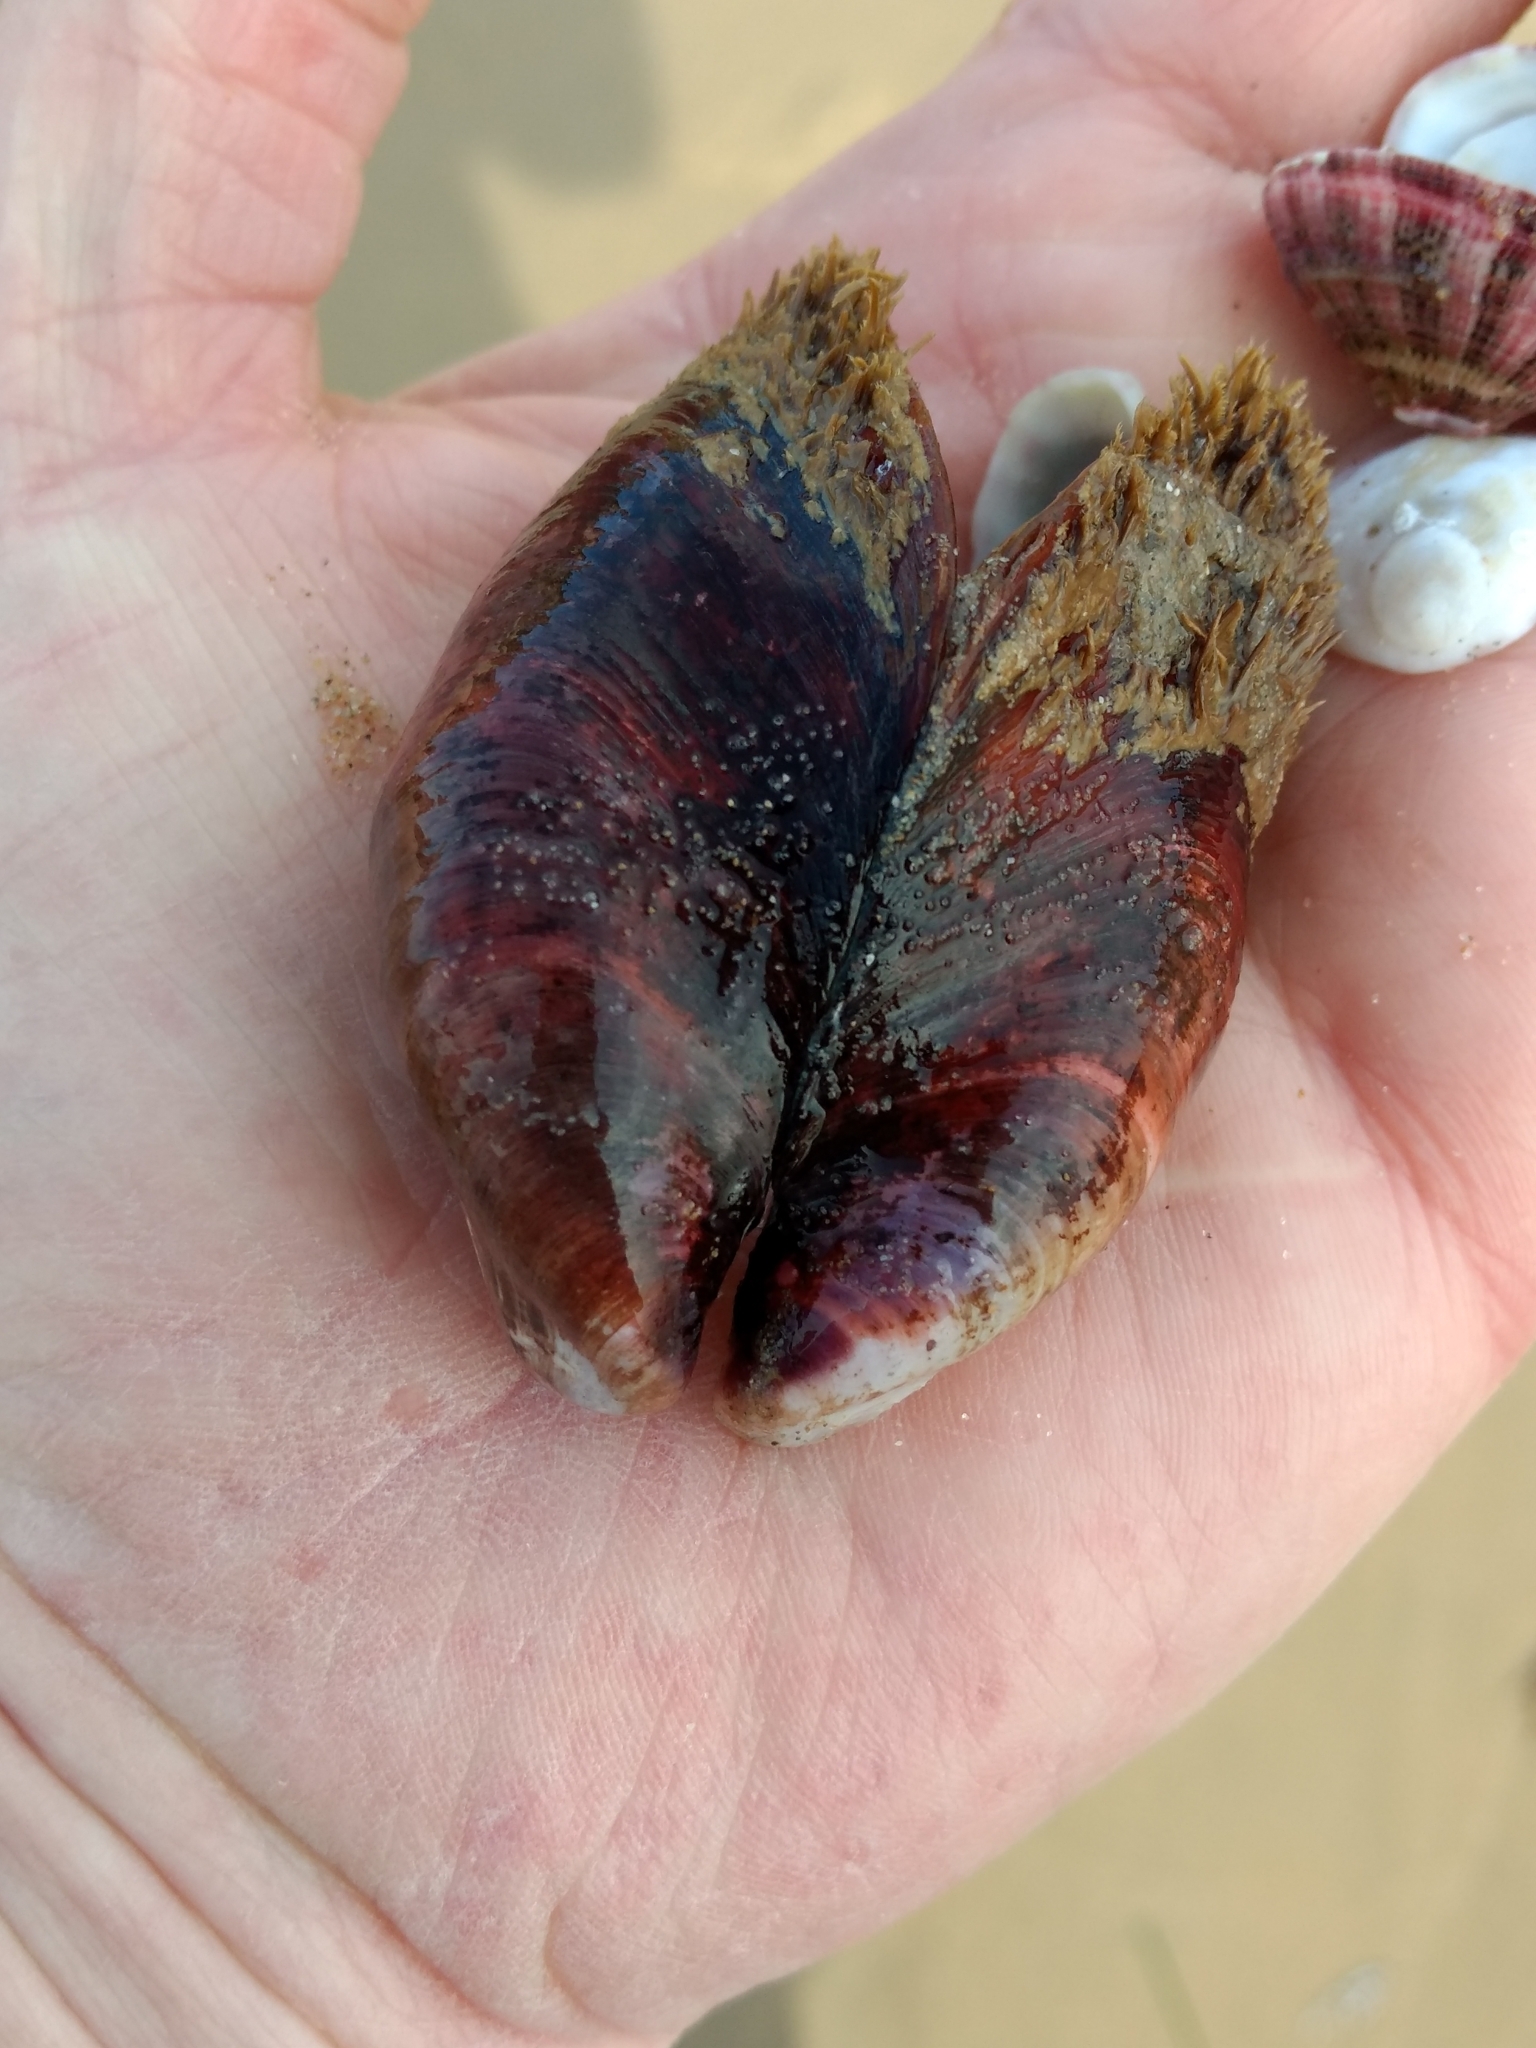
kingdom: Animalia
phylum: Mollusca
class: Bivalvia
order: Mytilida
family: Mytilidae
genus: Modiolus
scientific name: Modiolus capax
